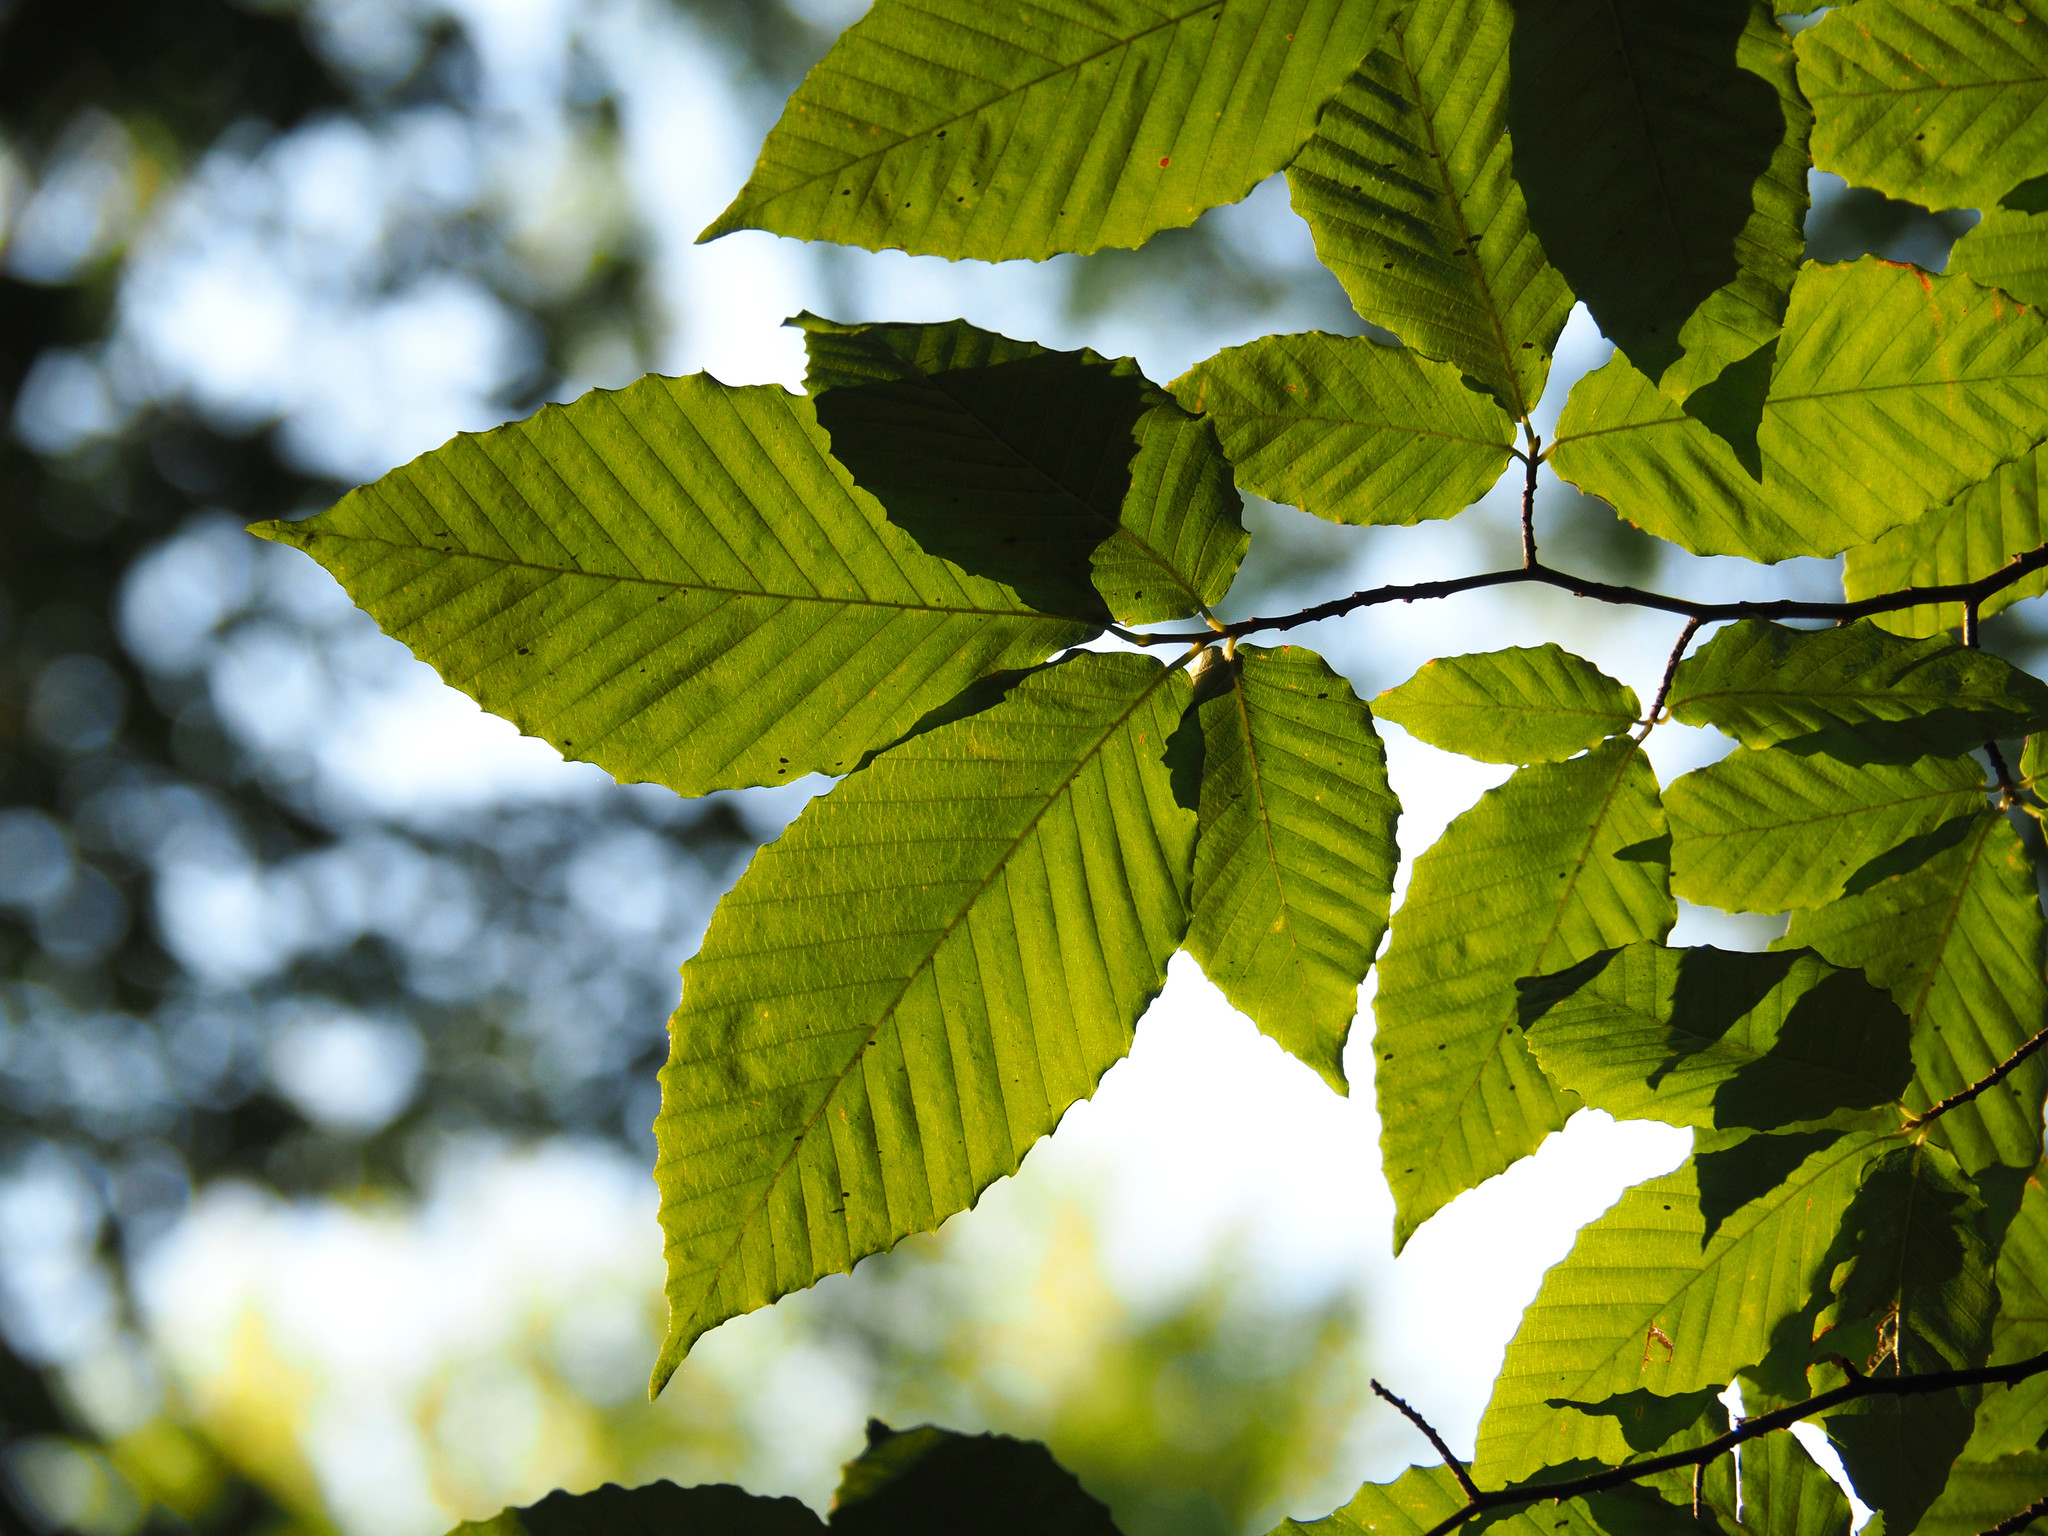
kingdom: Plantae
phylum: Tracheophyta
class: Magnoliopsida
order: Fagales
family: Fagaceae
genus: Fagus
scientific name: Fagus grandifolia
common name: American beech
